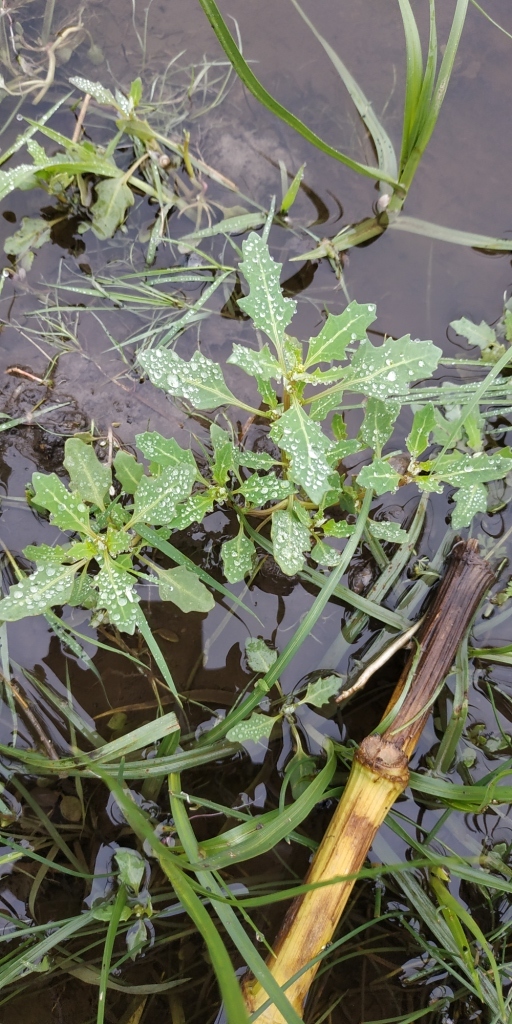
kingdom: Plantae
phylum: Tracheophyta
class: Magnoliopsida
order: Caryophyllales
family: Amaranthaceae
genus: Oxybasis
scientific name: Oxybasis glauca
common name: Glaucous goosefoot
